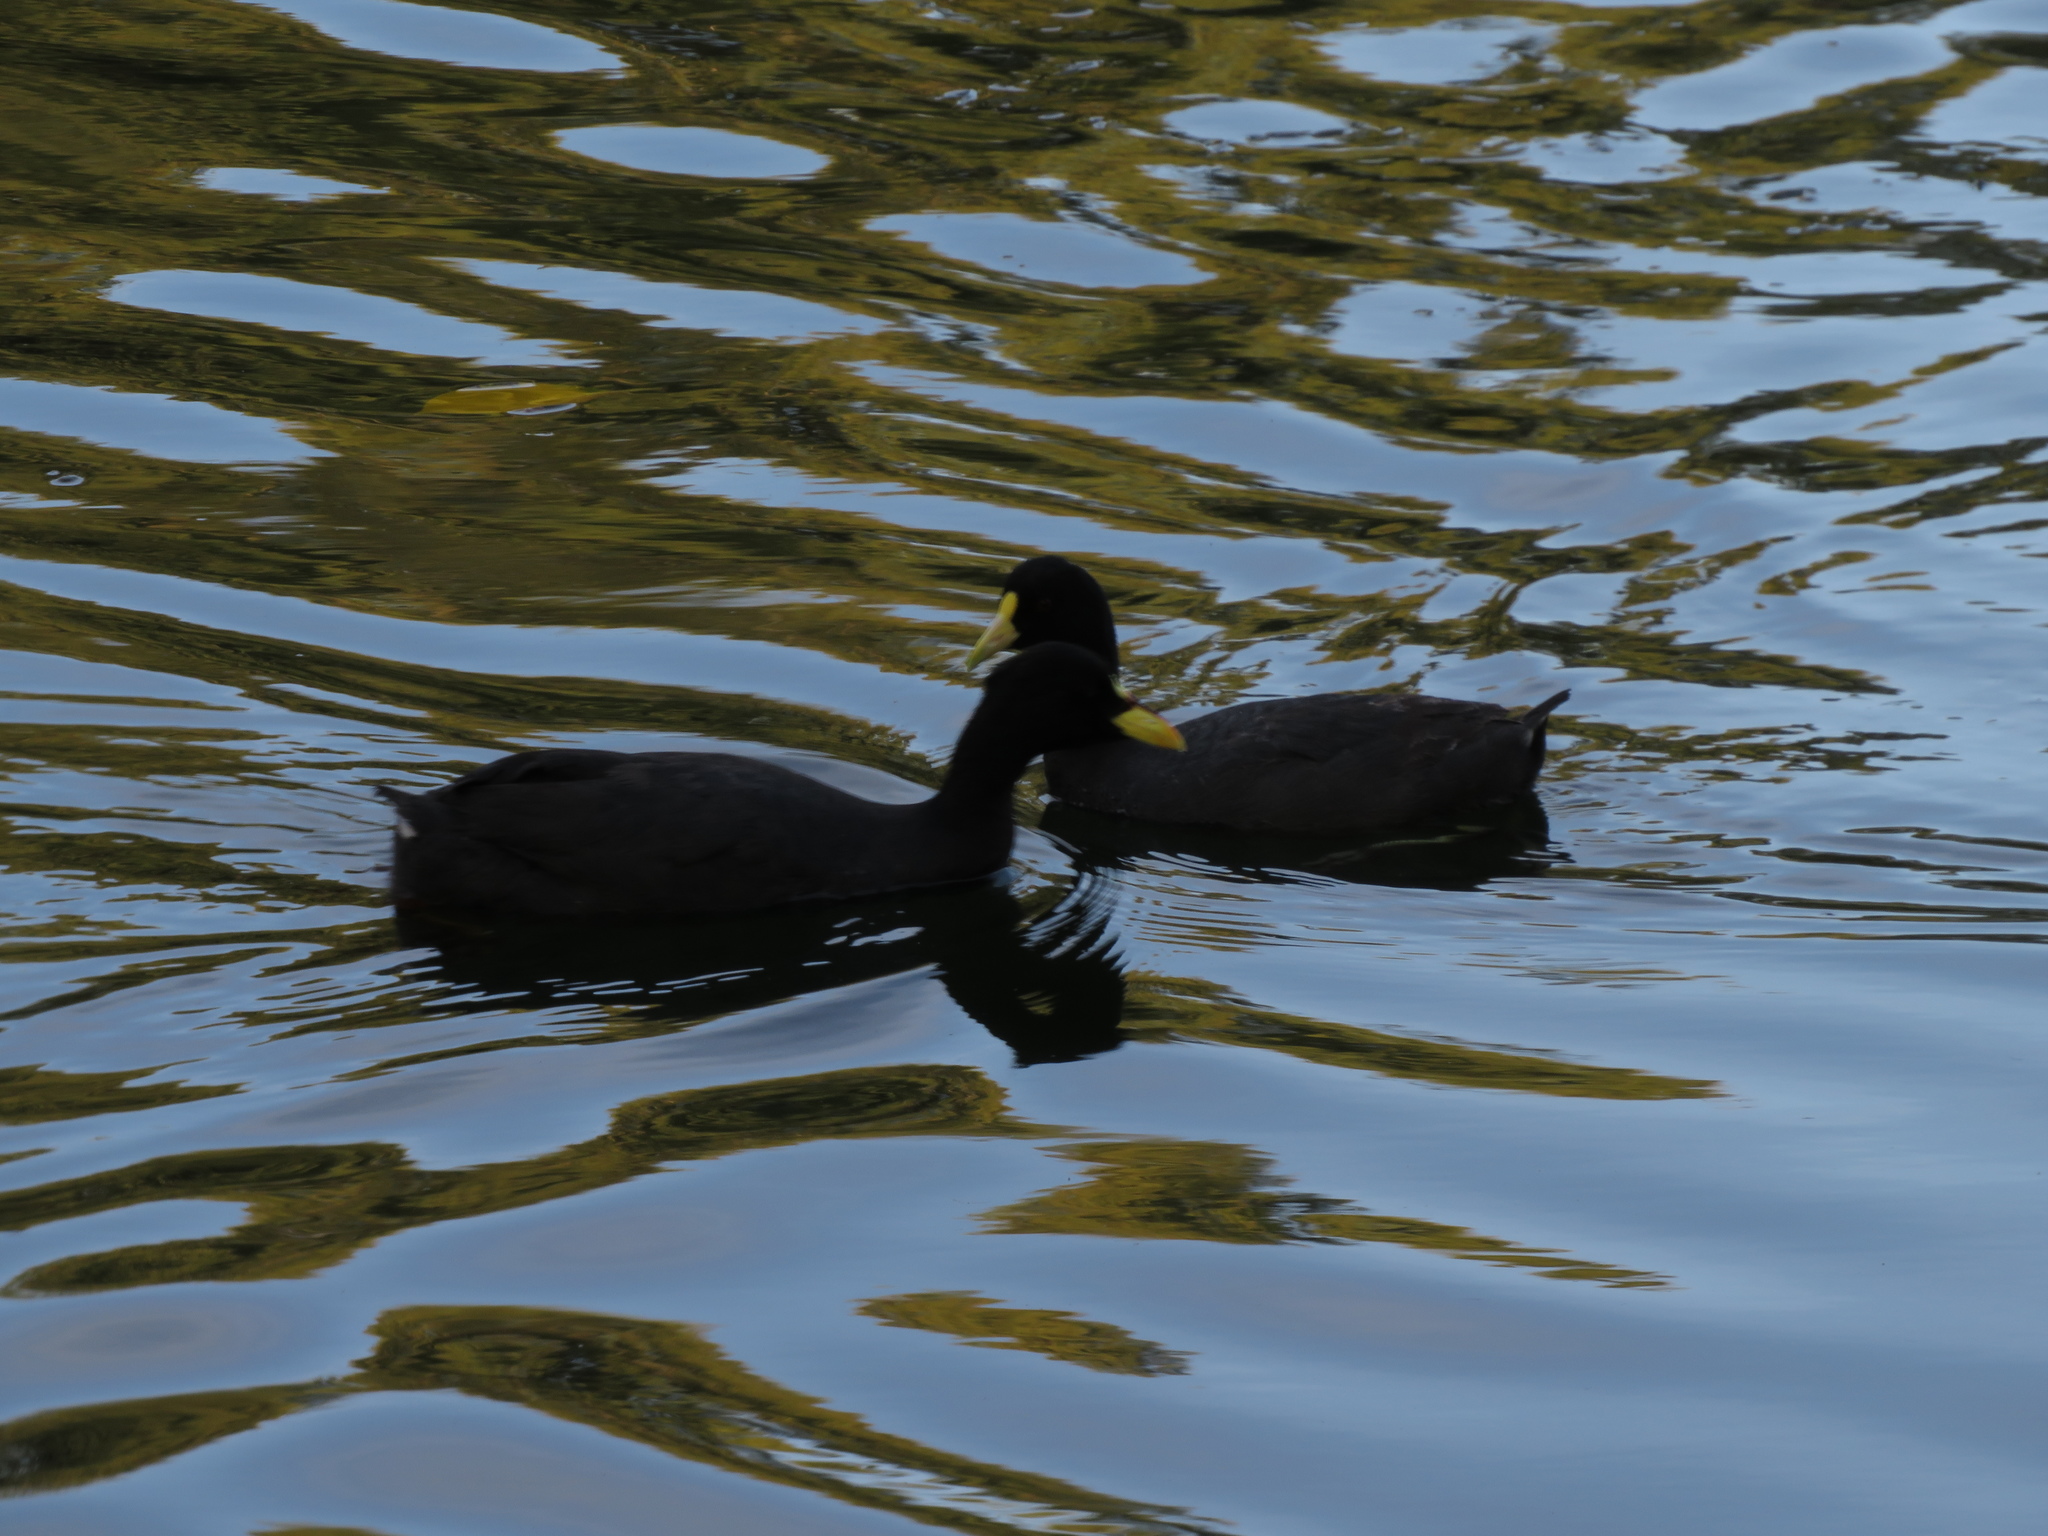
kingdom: Animalia
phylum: Chordata
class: Aves
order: Gruiformes
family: Rallidae
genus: Fulica
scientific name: Fulica armillata
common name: Red-gartered coot
